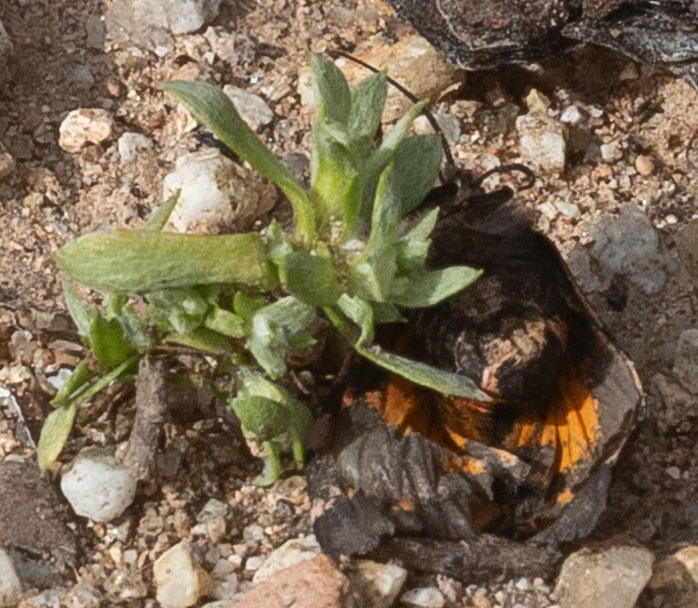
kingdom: Animalia
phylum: Arthropoda
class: Insecta
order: Lepidoptera
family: Erebidae
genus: Leptarctia
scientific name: Leptarctia californiae
